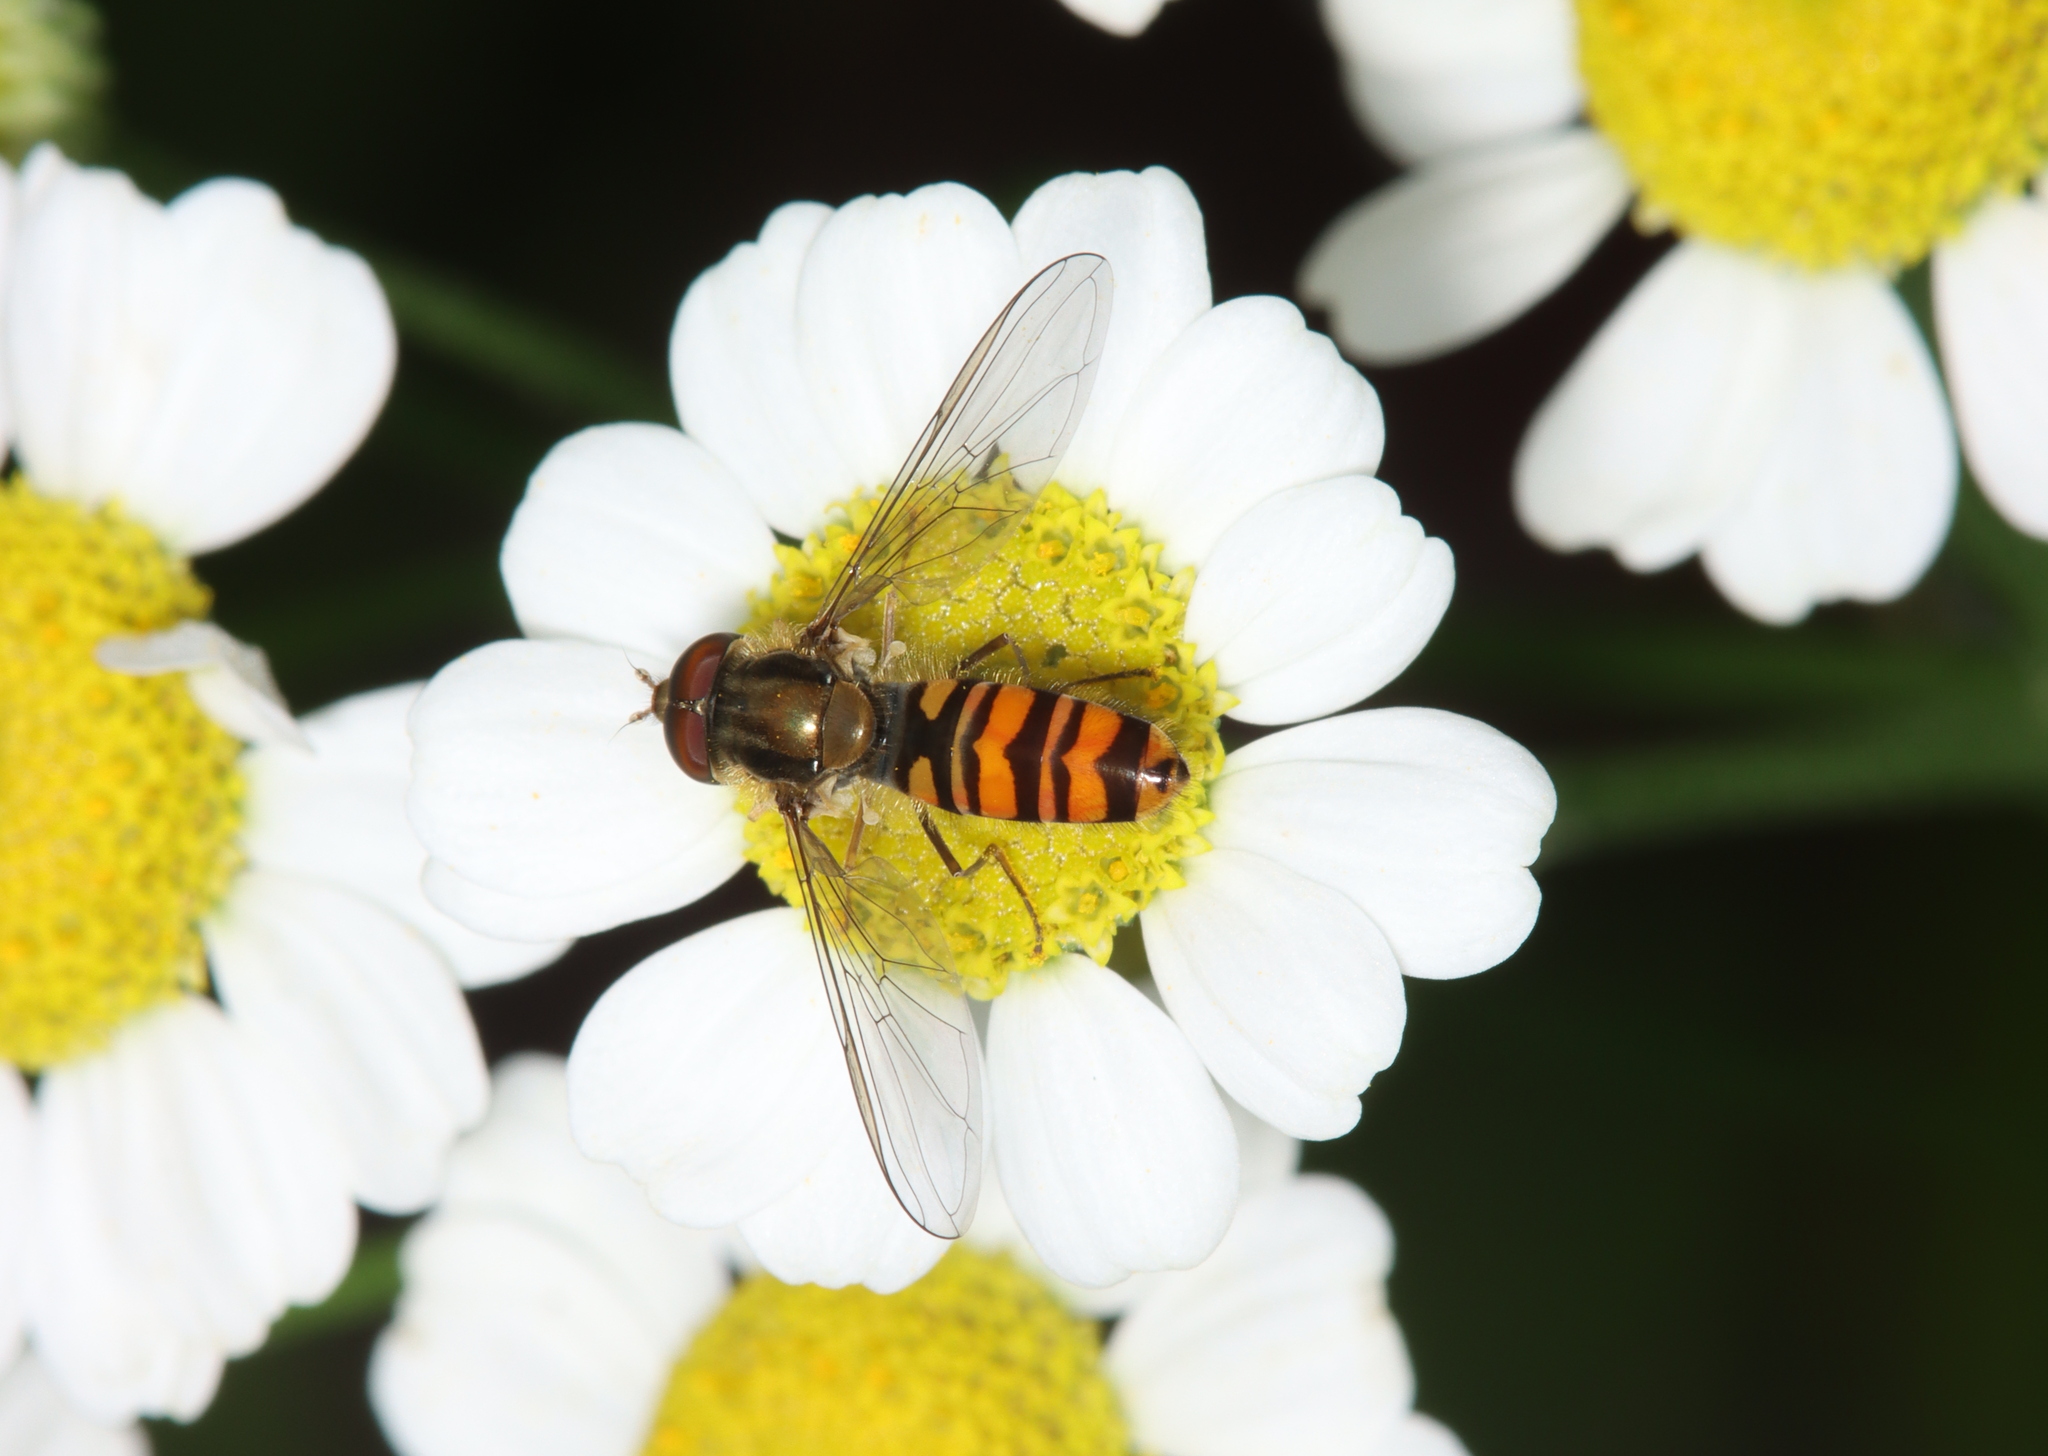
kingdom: Animalia
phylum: Arthropoda
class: Insecta
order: Diptera
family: Syrphidae
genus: Episyrphus
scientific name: Episyrphus balteatus
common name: Marmalade hoverfly
